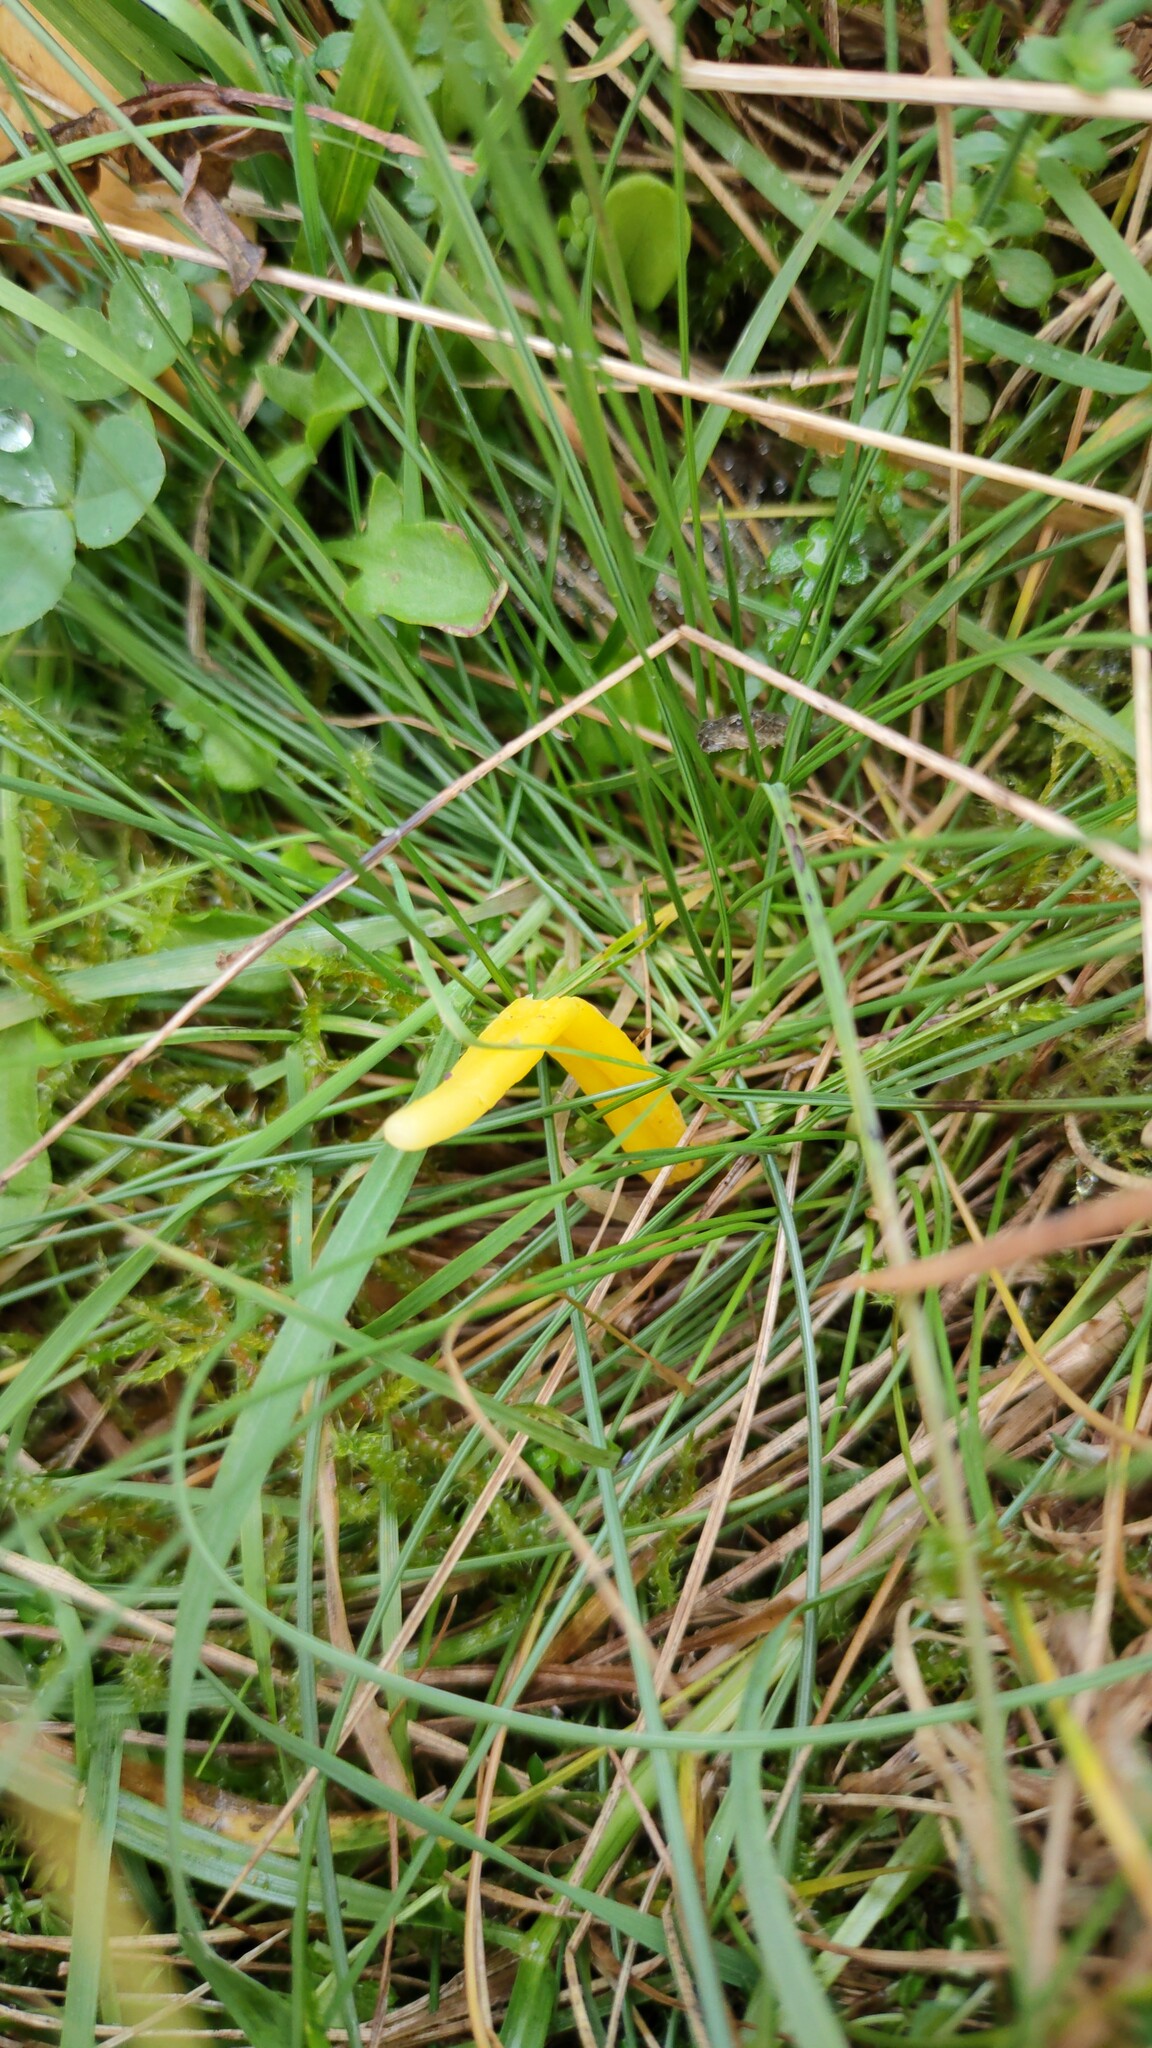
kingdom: Fungi
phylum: Basidiomycota
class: Agaricomycetes
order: Agaricales
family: Clavariaceae
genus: Clavulinopsis
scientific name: Clavulinopsis helvola
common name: Yellow club
